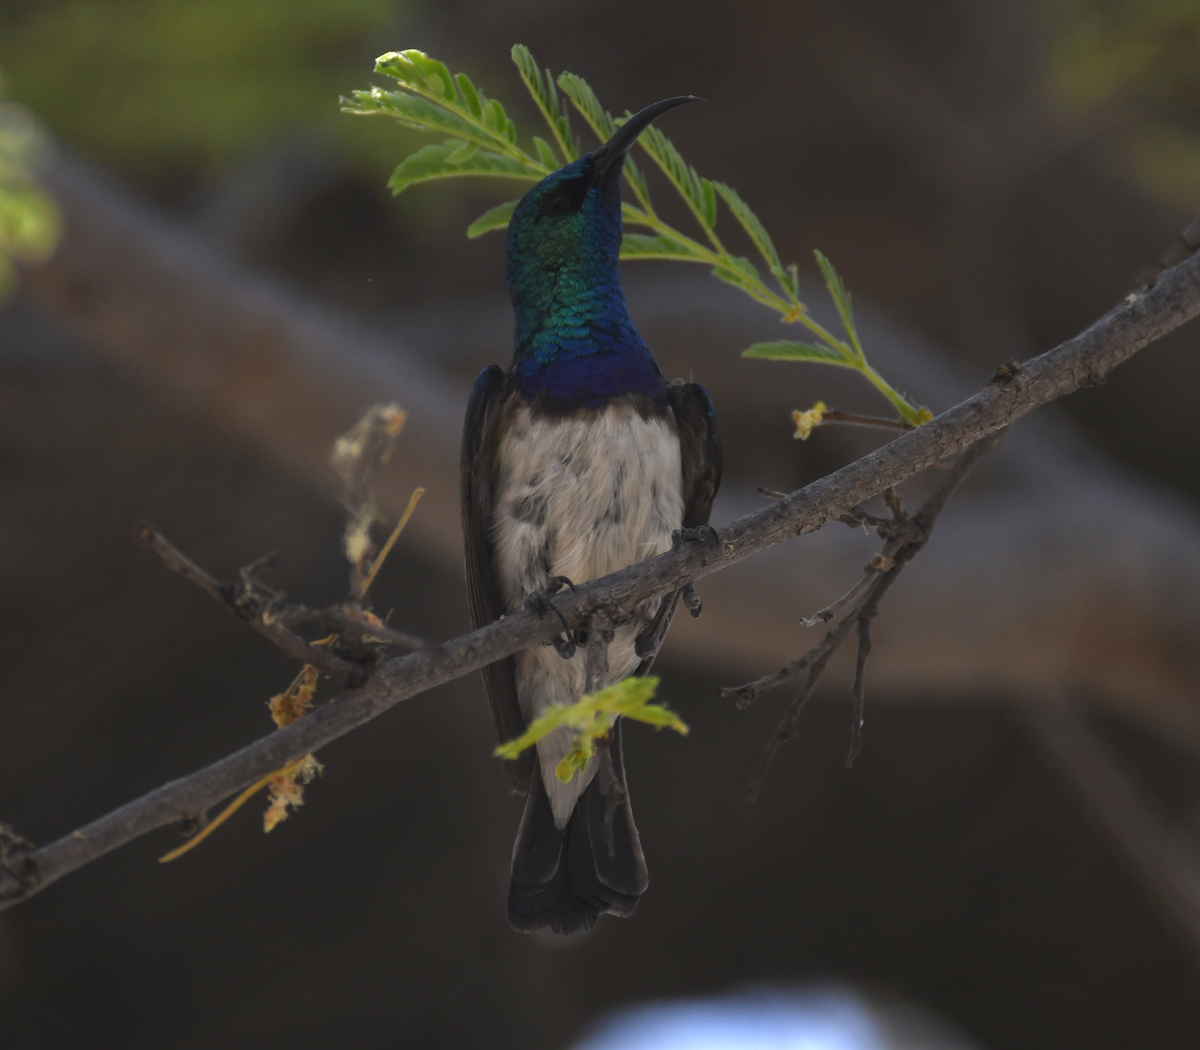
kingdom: Animalia
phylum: Chordata
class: Aves
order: Passeriformes
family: Nectariniidae
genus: Cinnyris
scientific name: Cinnyris talatala
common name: White-bellied sunbird
